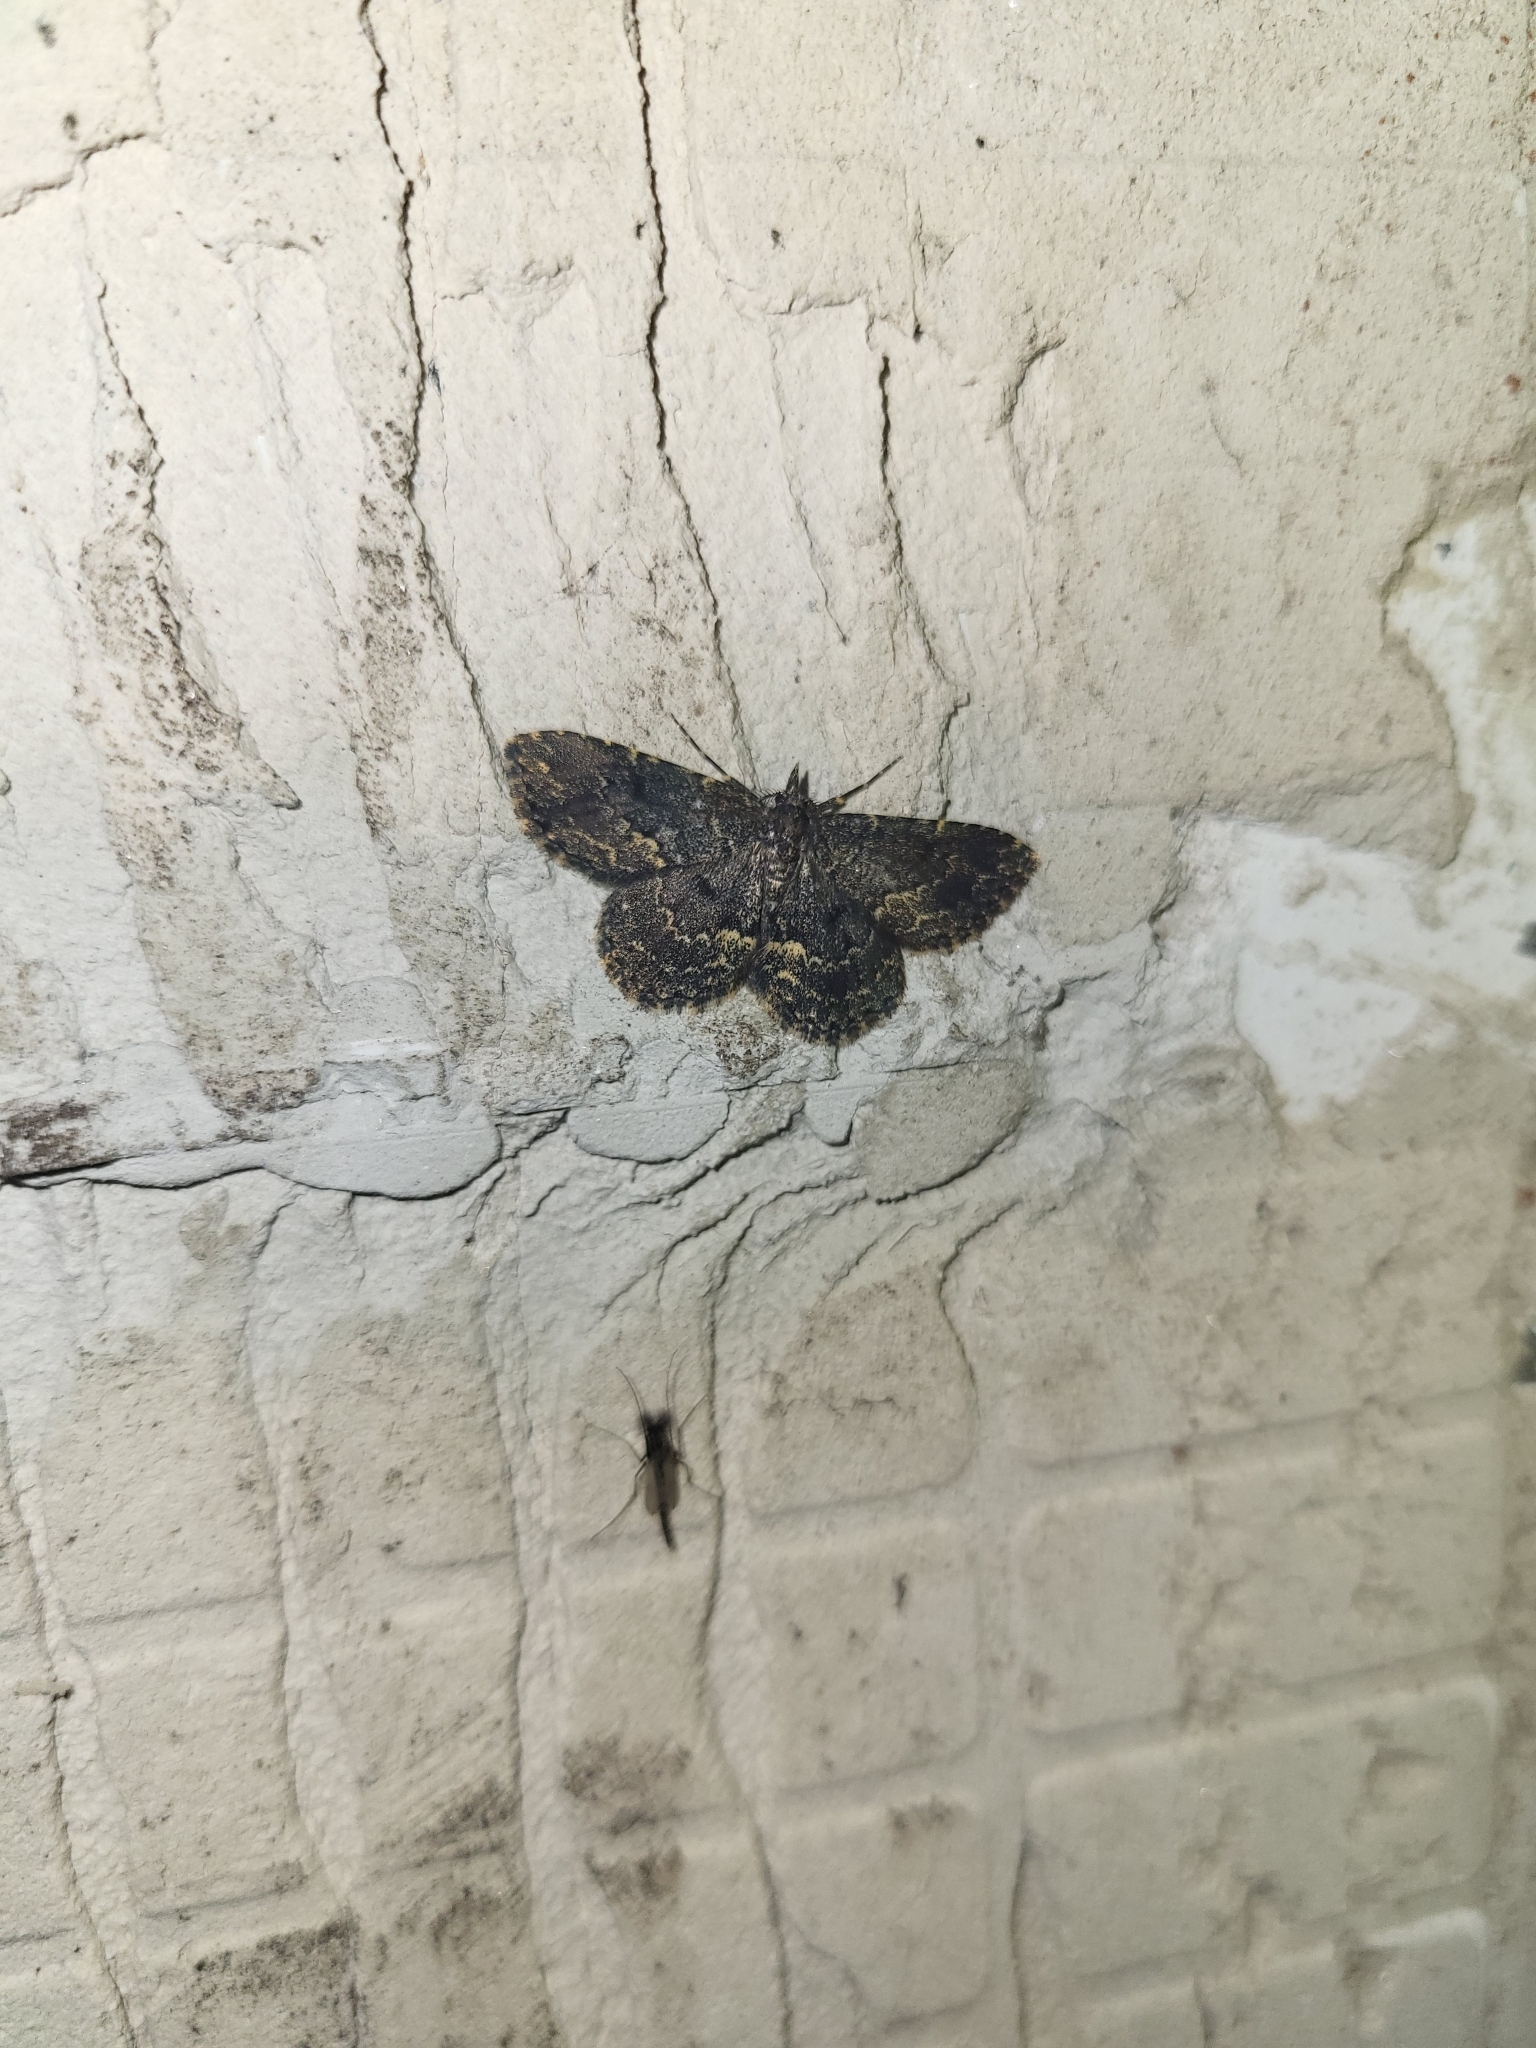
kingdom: Animalia
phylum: Arthropoda
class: Insecta
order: Lepidoptera
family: Erebidae
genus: Parascotia
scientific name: Parascotia fuliginaria
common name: Waved black
